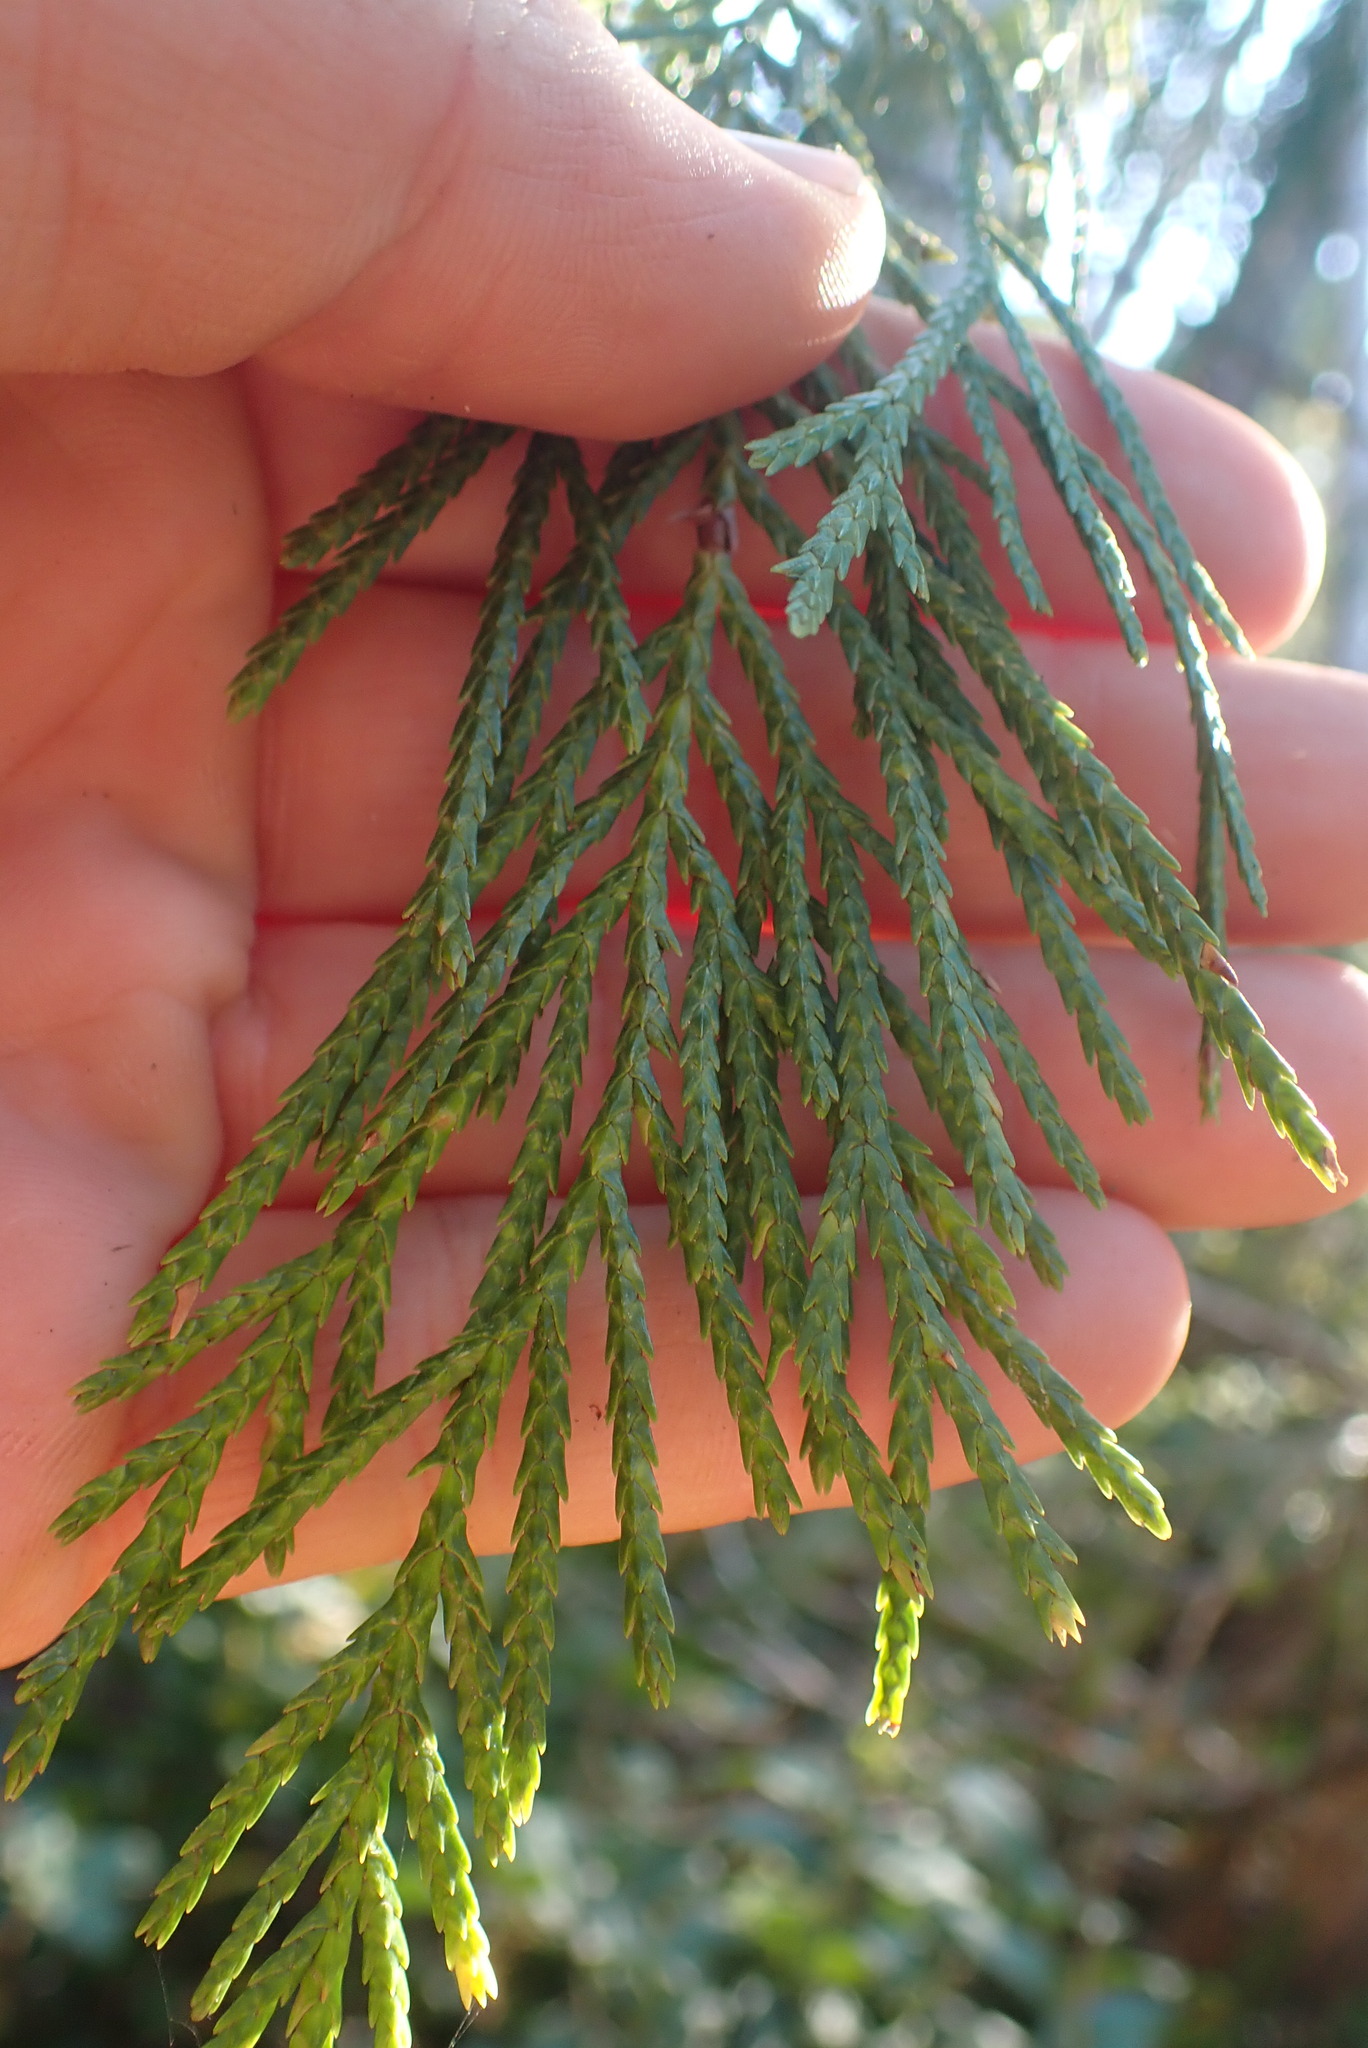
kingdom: Plantae
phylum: Tracheophyta
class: Pinopsida
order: Pinales
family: Cupressaceae
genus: Xanthocyparis
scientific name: Xanthocyparis nootkatensis
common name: Nootka cypress
